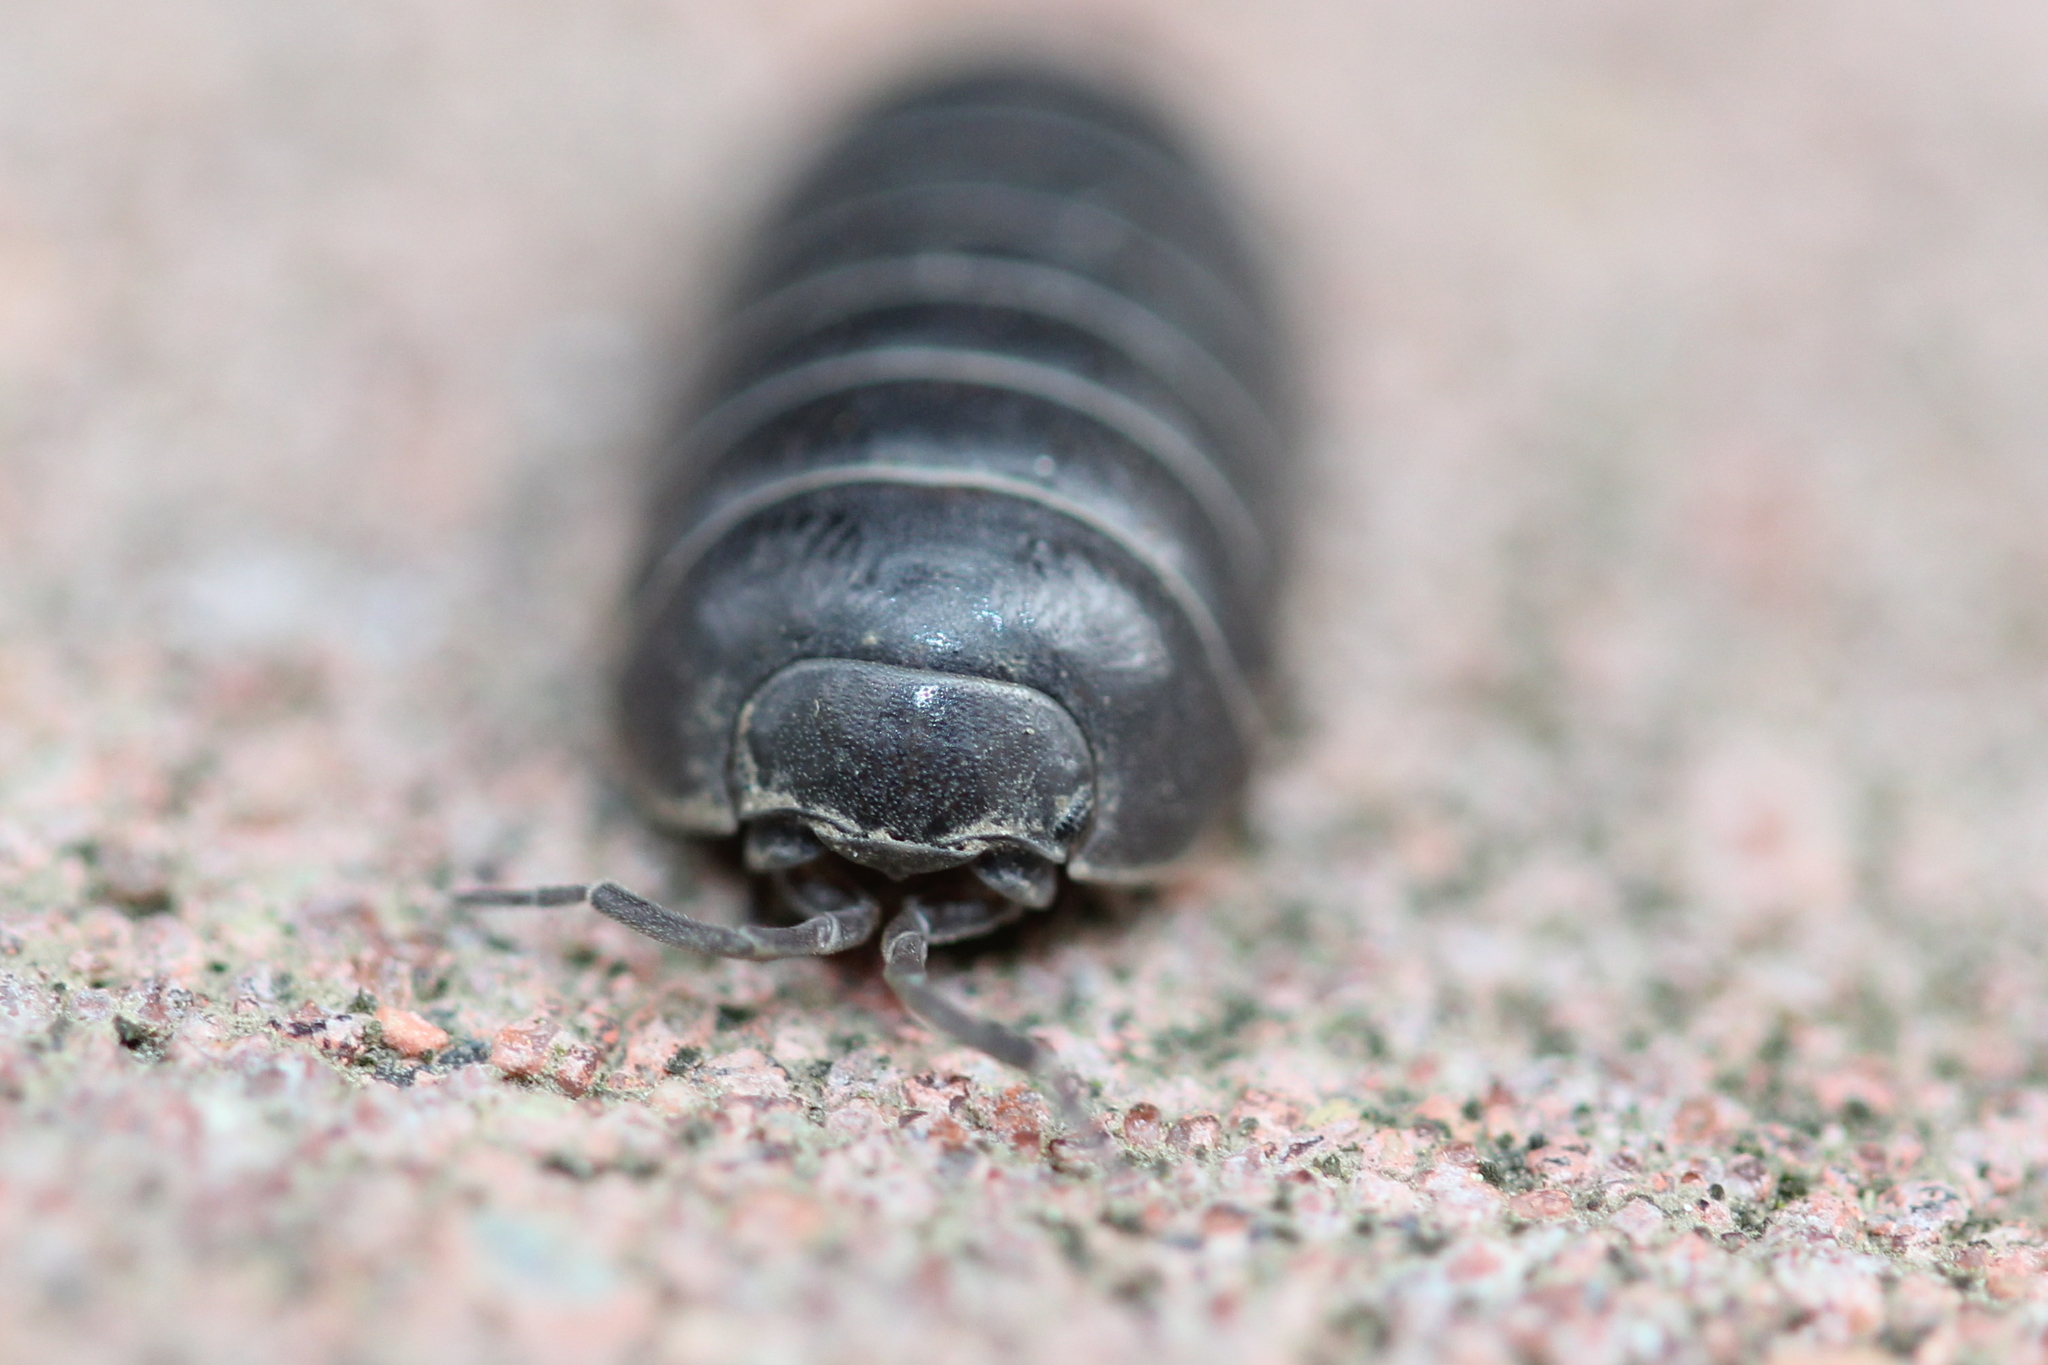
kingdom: Animalia
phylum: Arthropoda
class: Malacostraca
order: Isopoda
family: Armadillidiidae
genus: Armadillidium
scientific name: Armadillidium vulgare
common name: Common pill woodlouse
